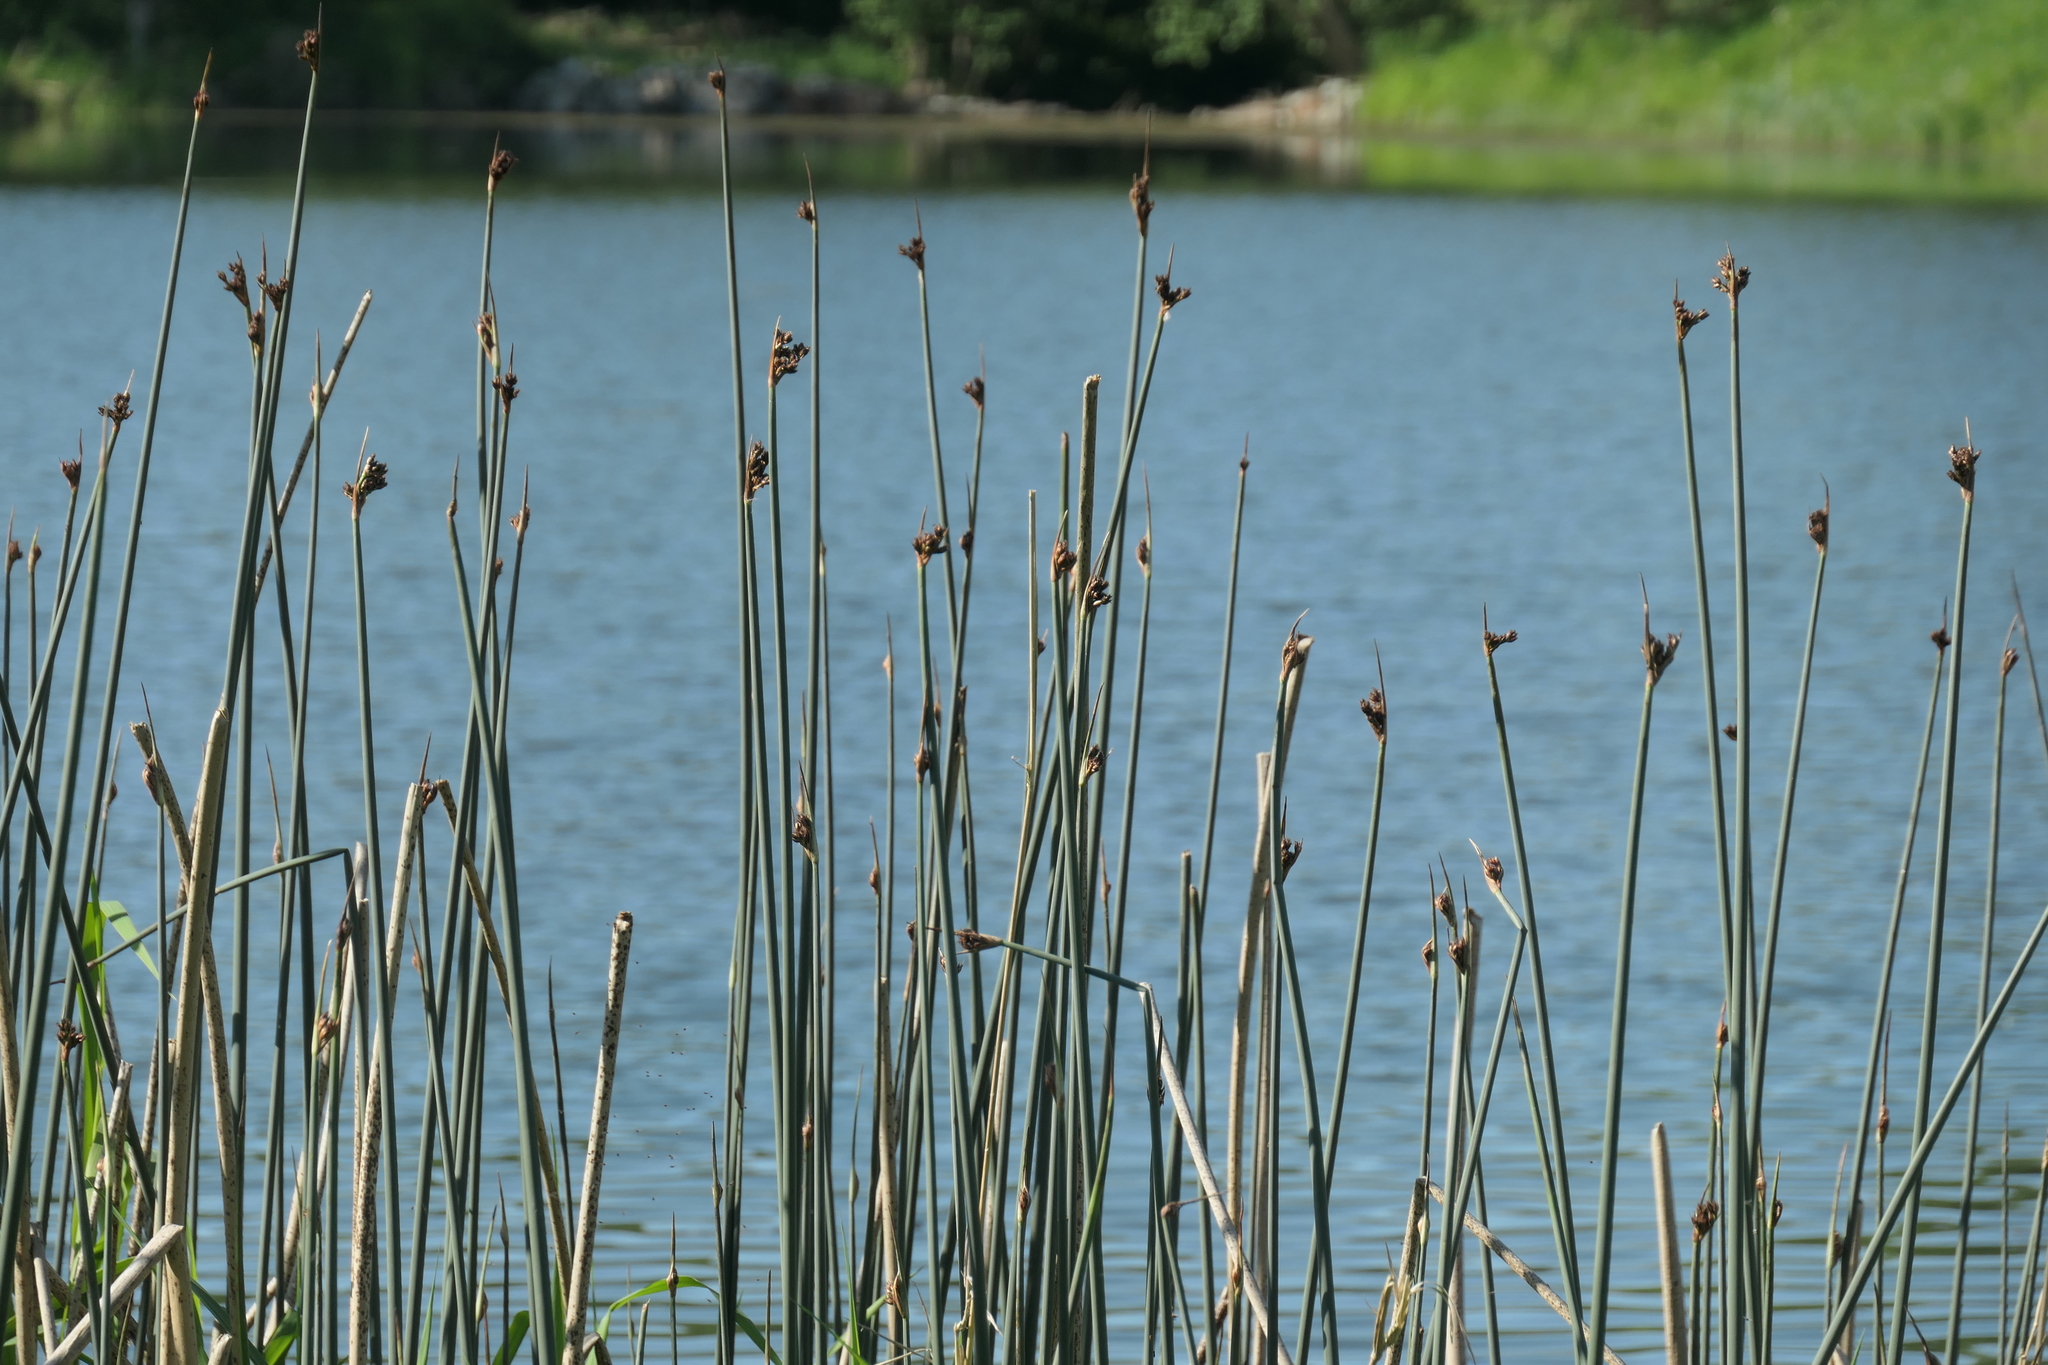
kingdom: Plantae
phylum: Tracheophyta
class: Liliopsida
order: Poales
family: Cyperaceae
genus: Schoenoplectus
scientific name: Schoenoplectus acutus
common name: Hardstem bulrush
